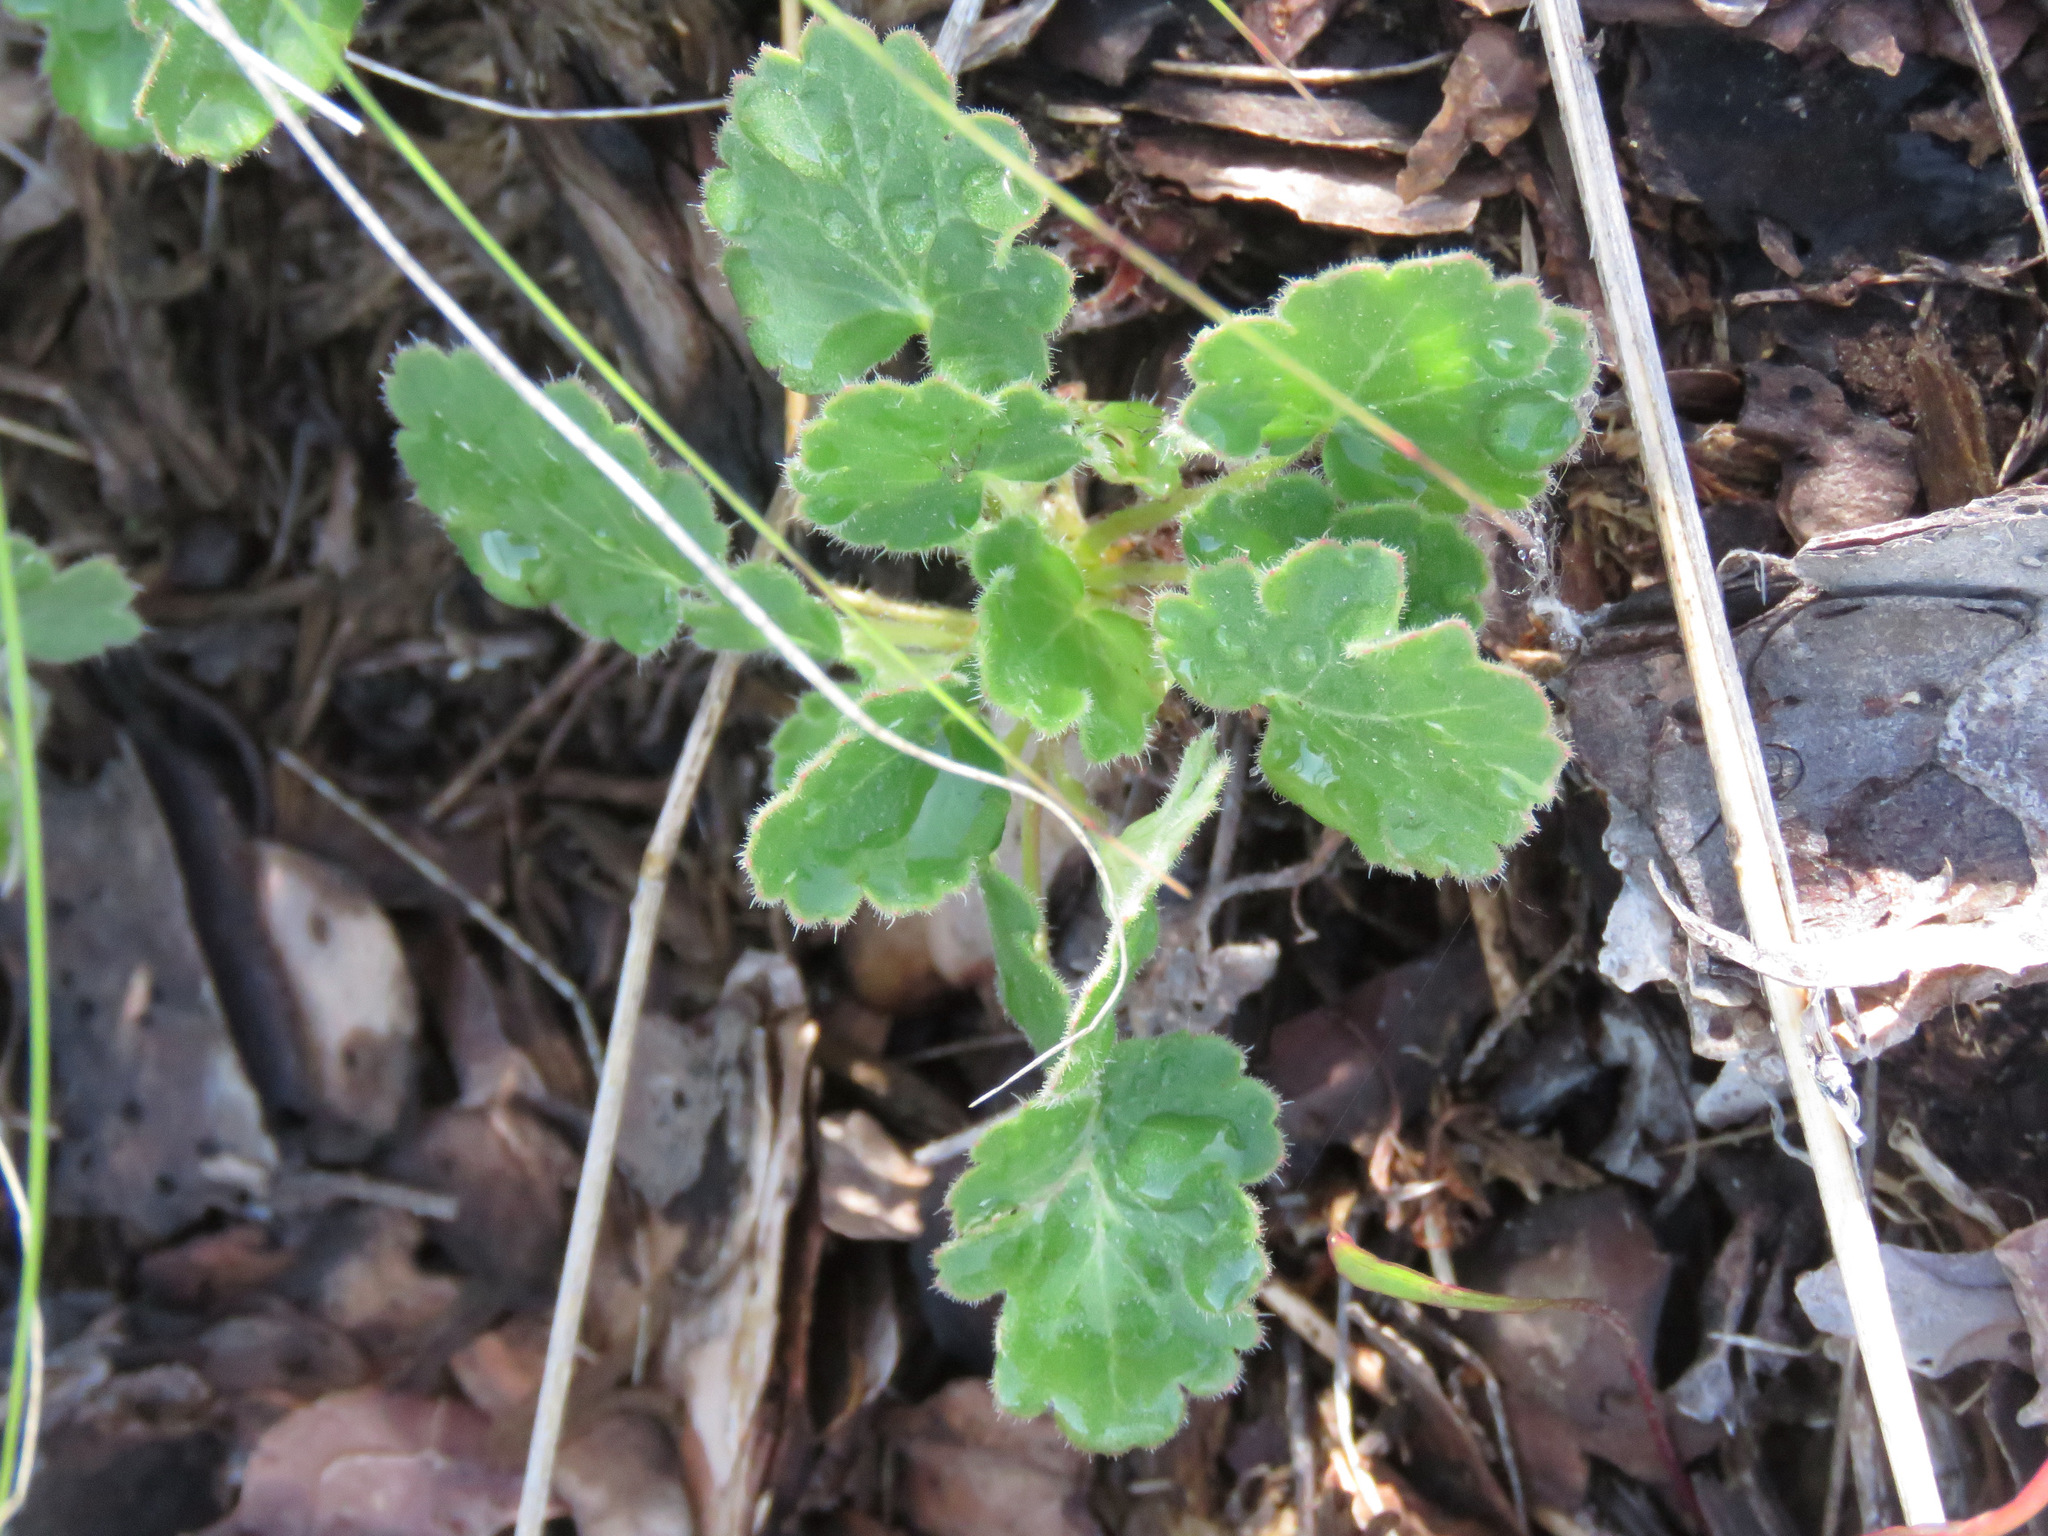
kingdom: Plantae
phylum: Tracheophyta
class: Magnoliopsida
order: Saxifragales
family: Saxifragaceae
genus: Heuchera
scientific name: Heuchera cylindrica
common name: Mat alumroot
